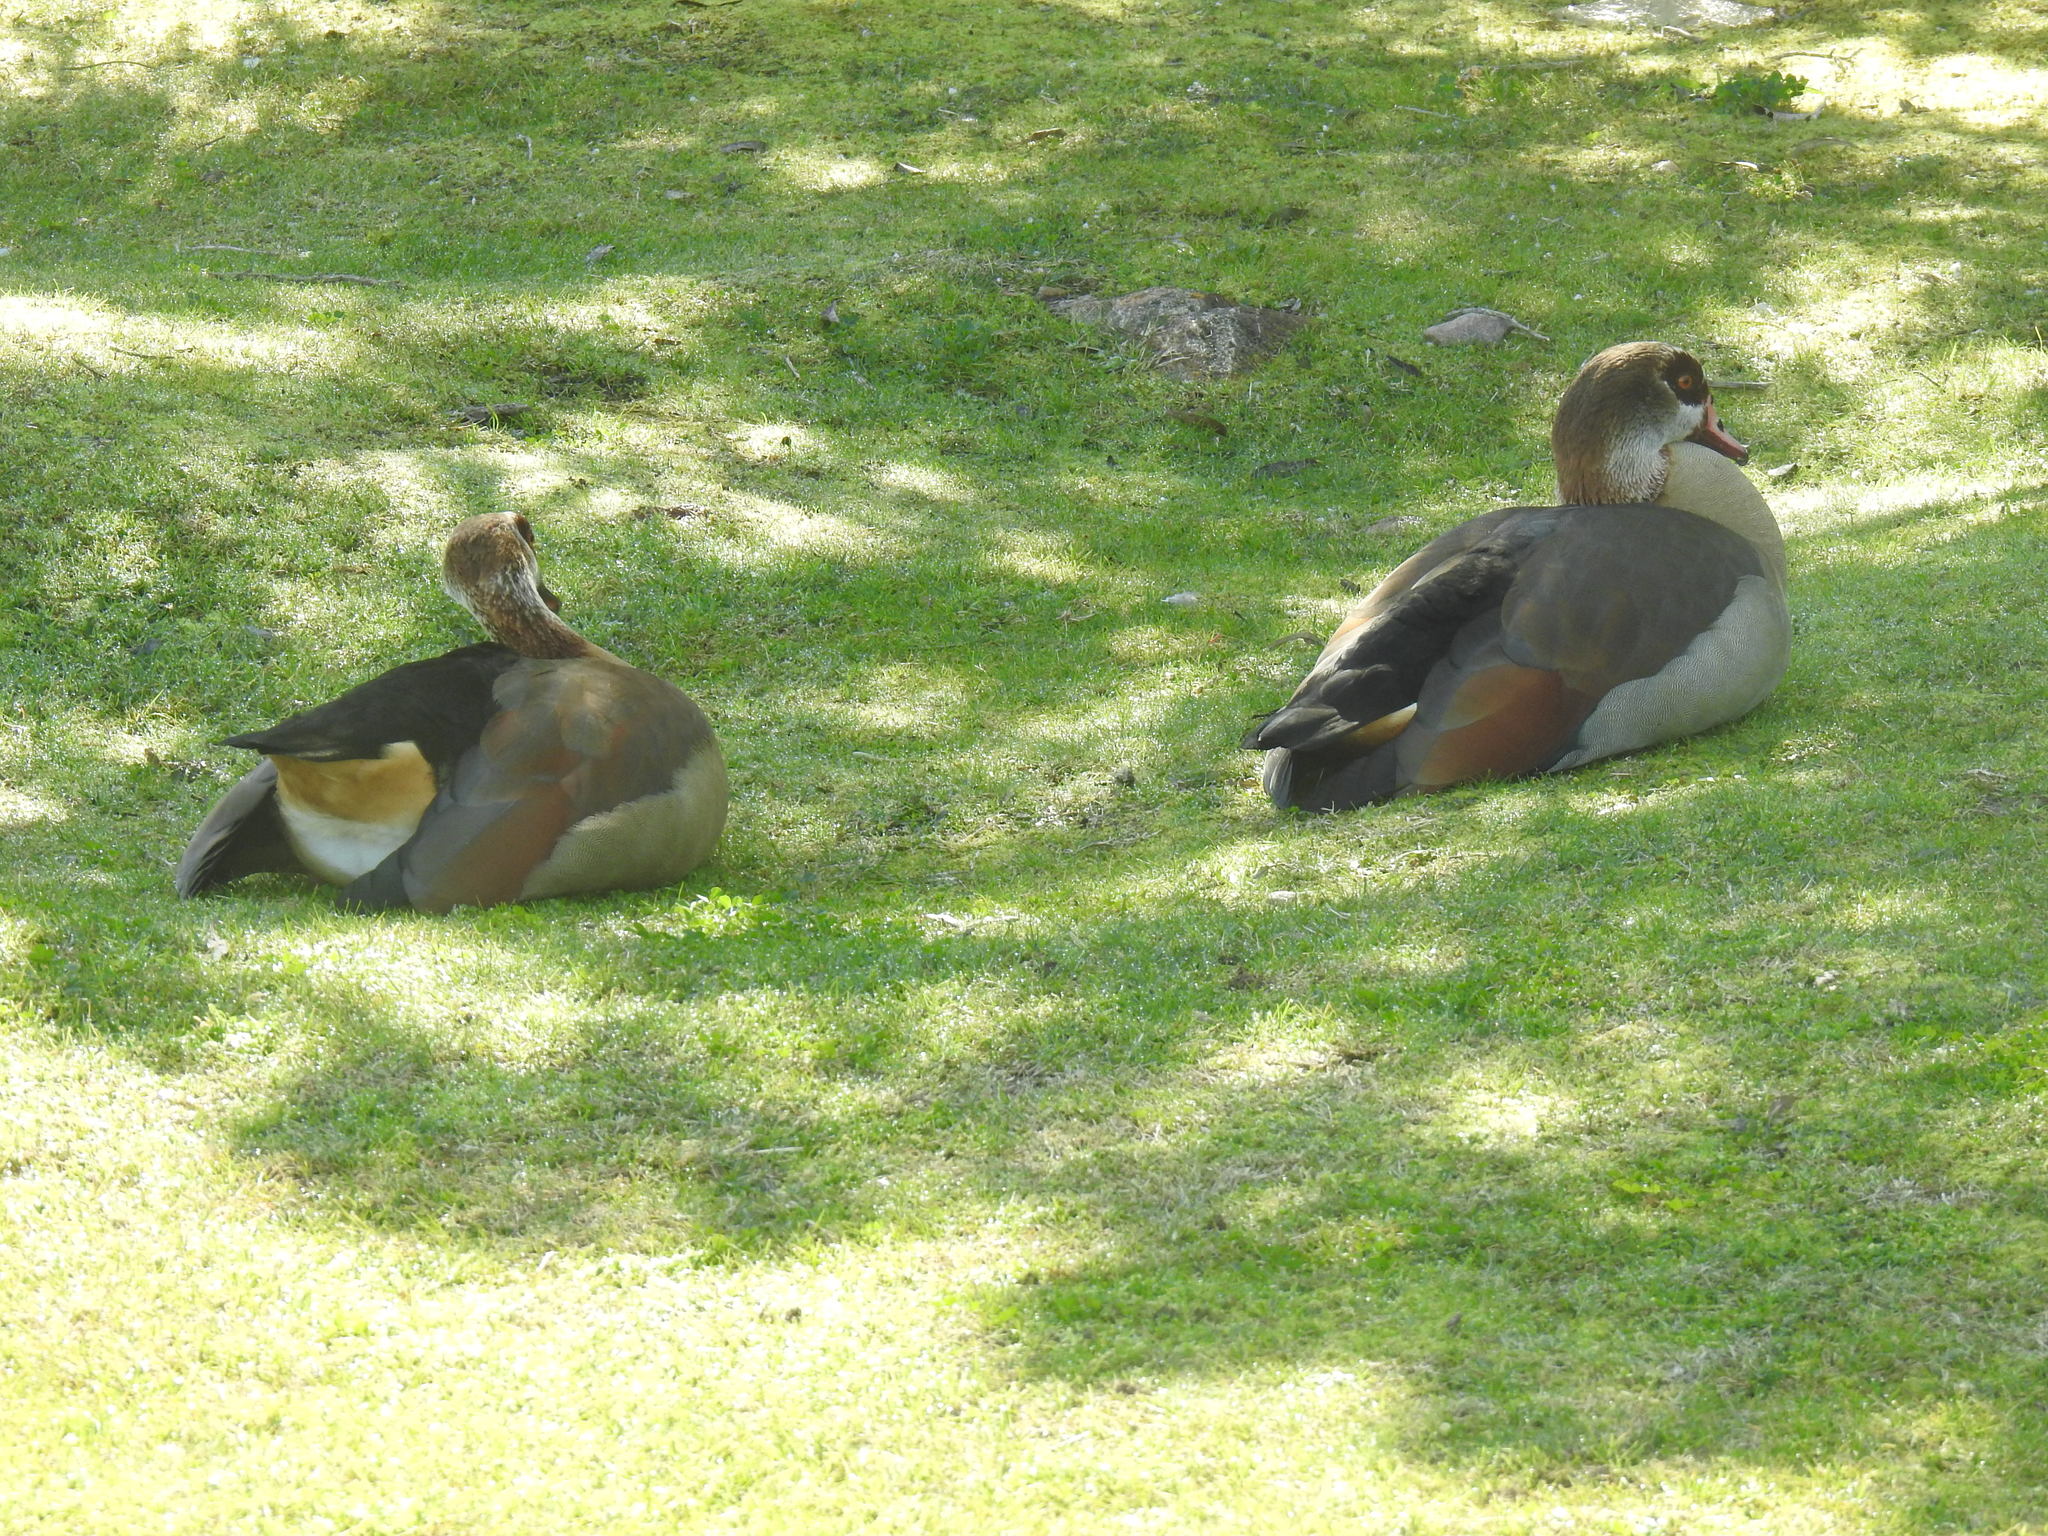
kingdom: Animalia
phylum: Chordata
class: Aves
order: Anseriformes
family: Anatidae
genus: Alopochen
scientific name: Alopochen aegyptiaca
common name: Egyptian goose
